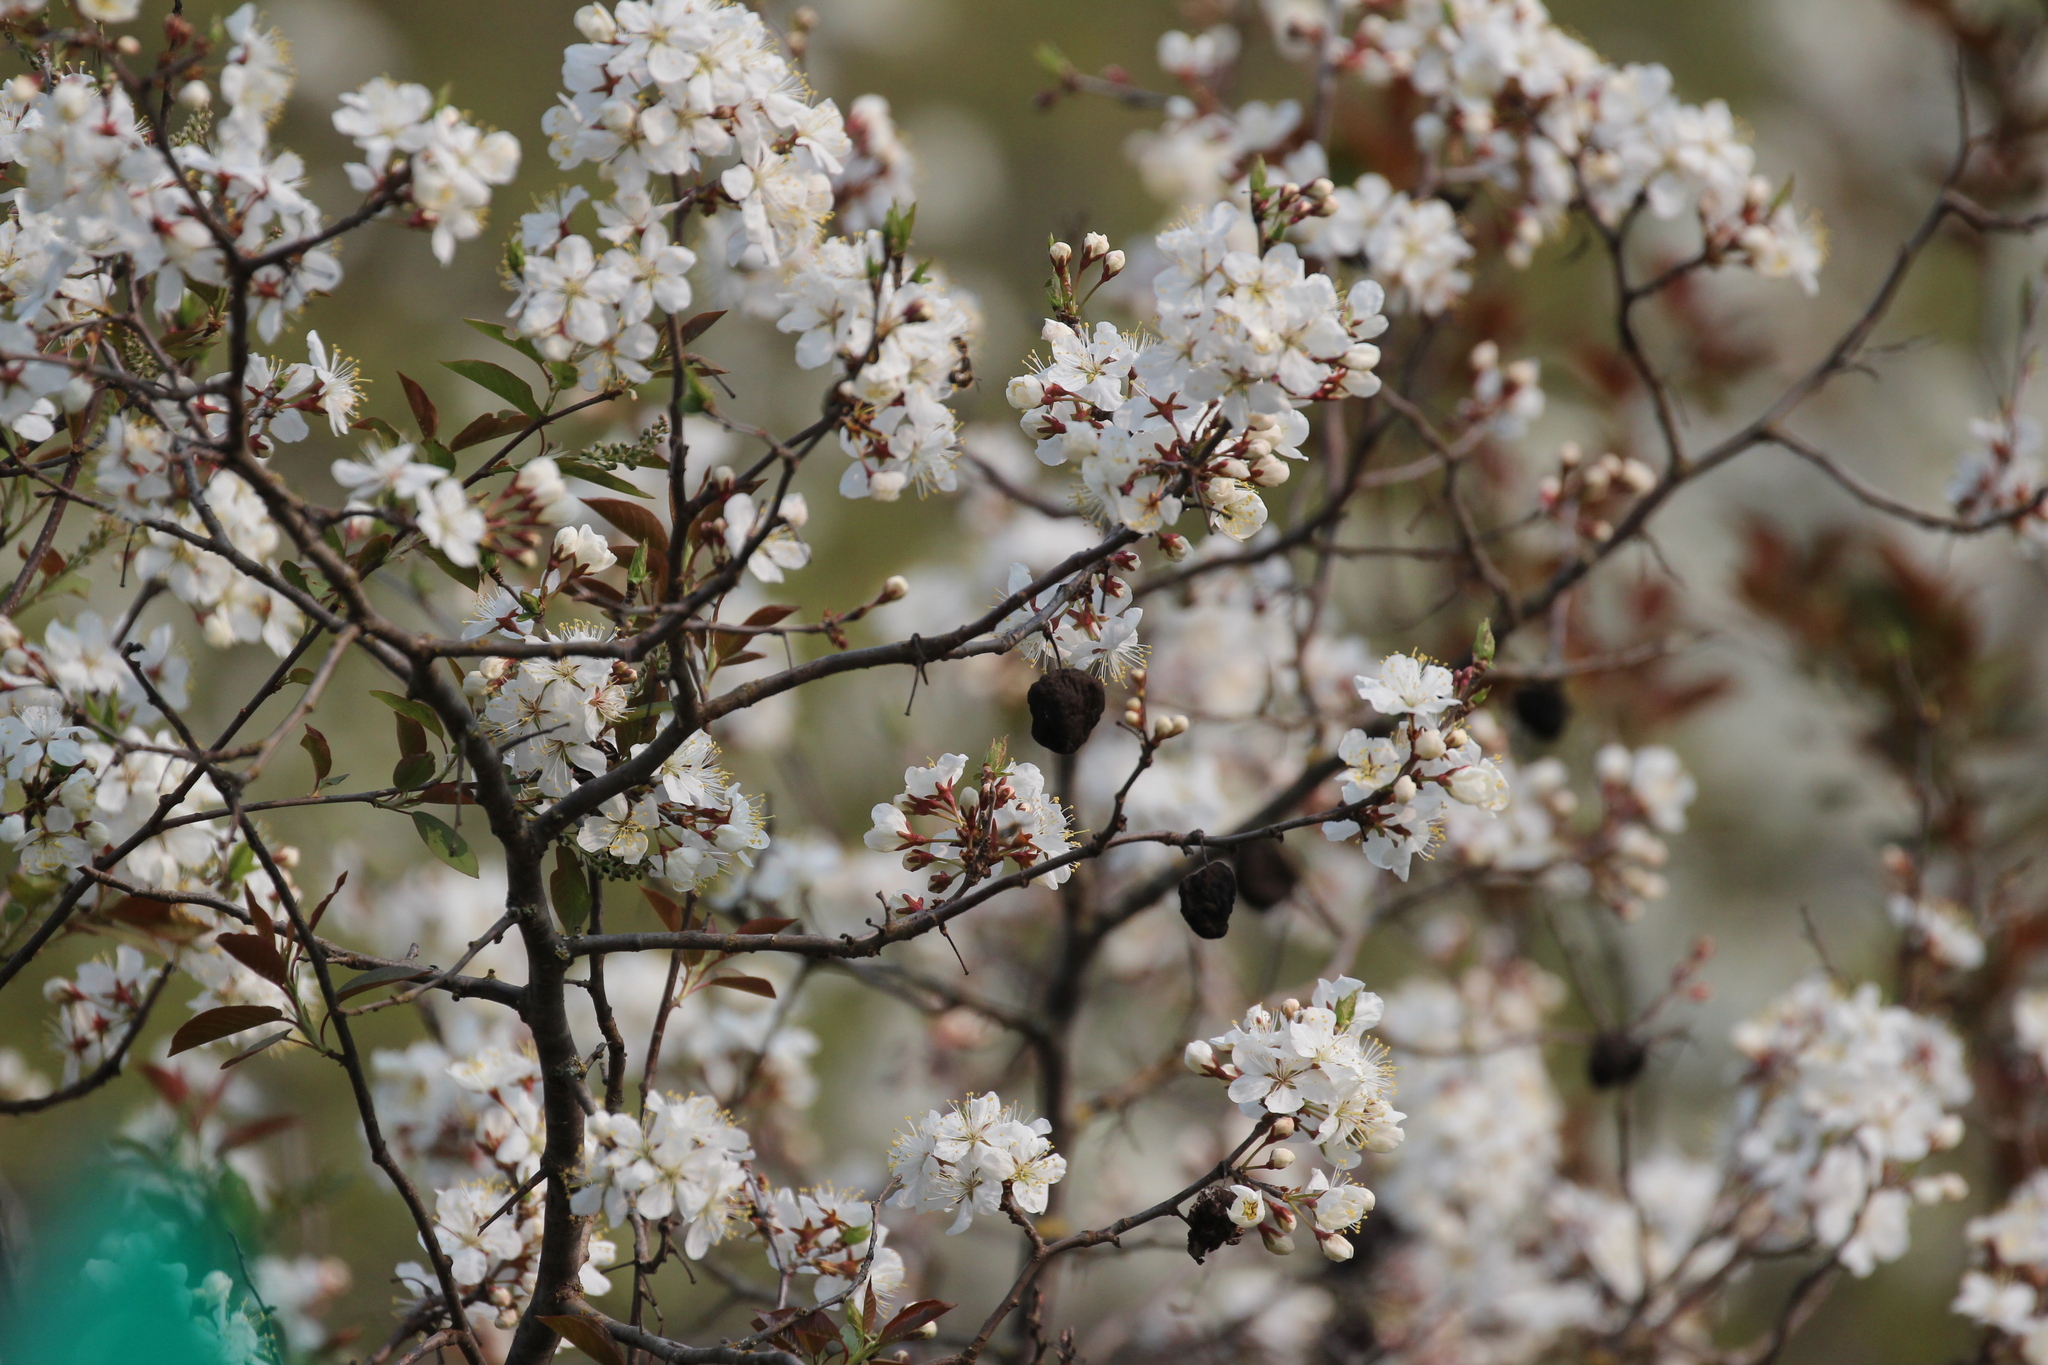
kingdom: Plantae
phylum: Tracheophyta
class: Magnoliopsida
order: Rosales
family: Rosaceae
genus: Prunus
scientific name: Prunus nigra
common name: Black plum
